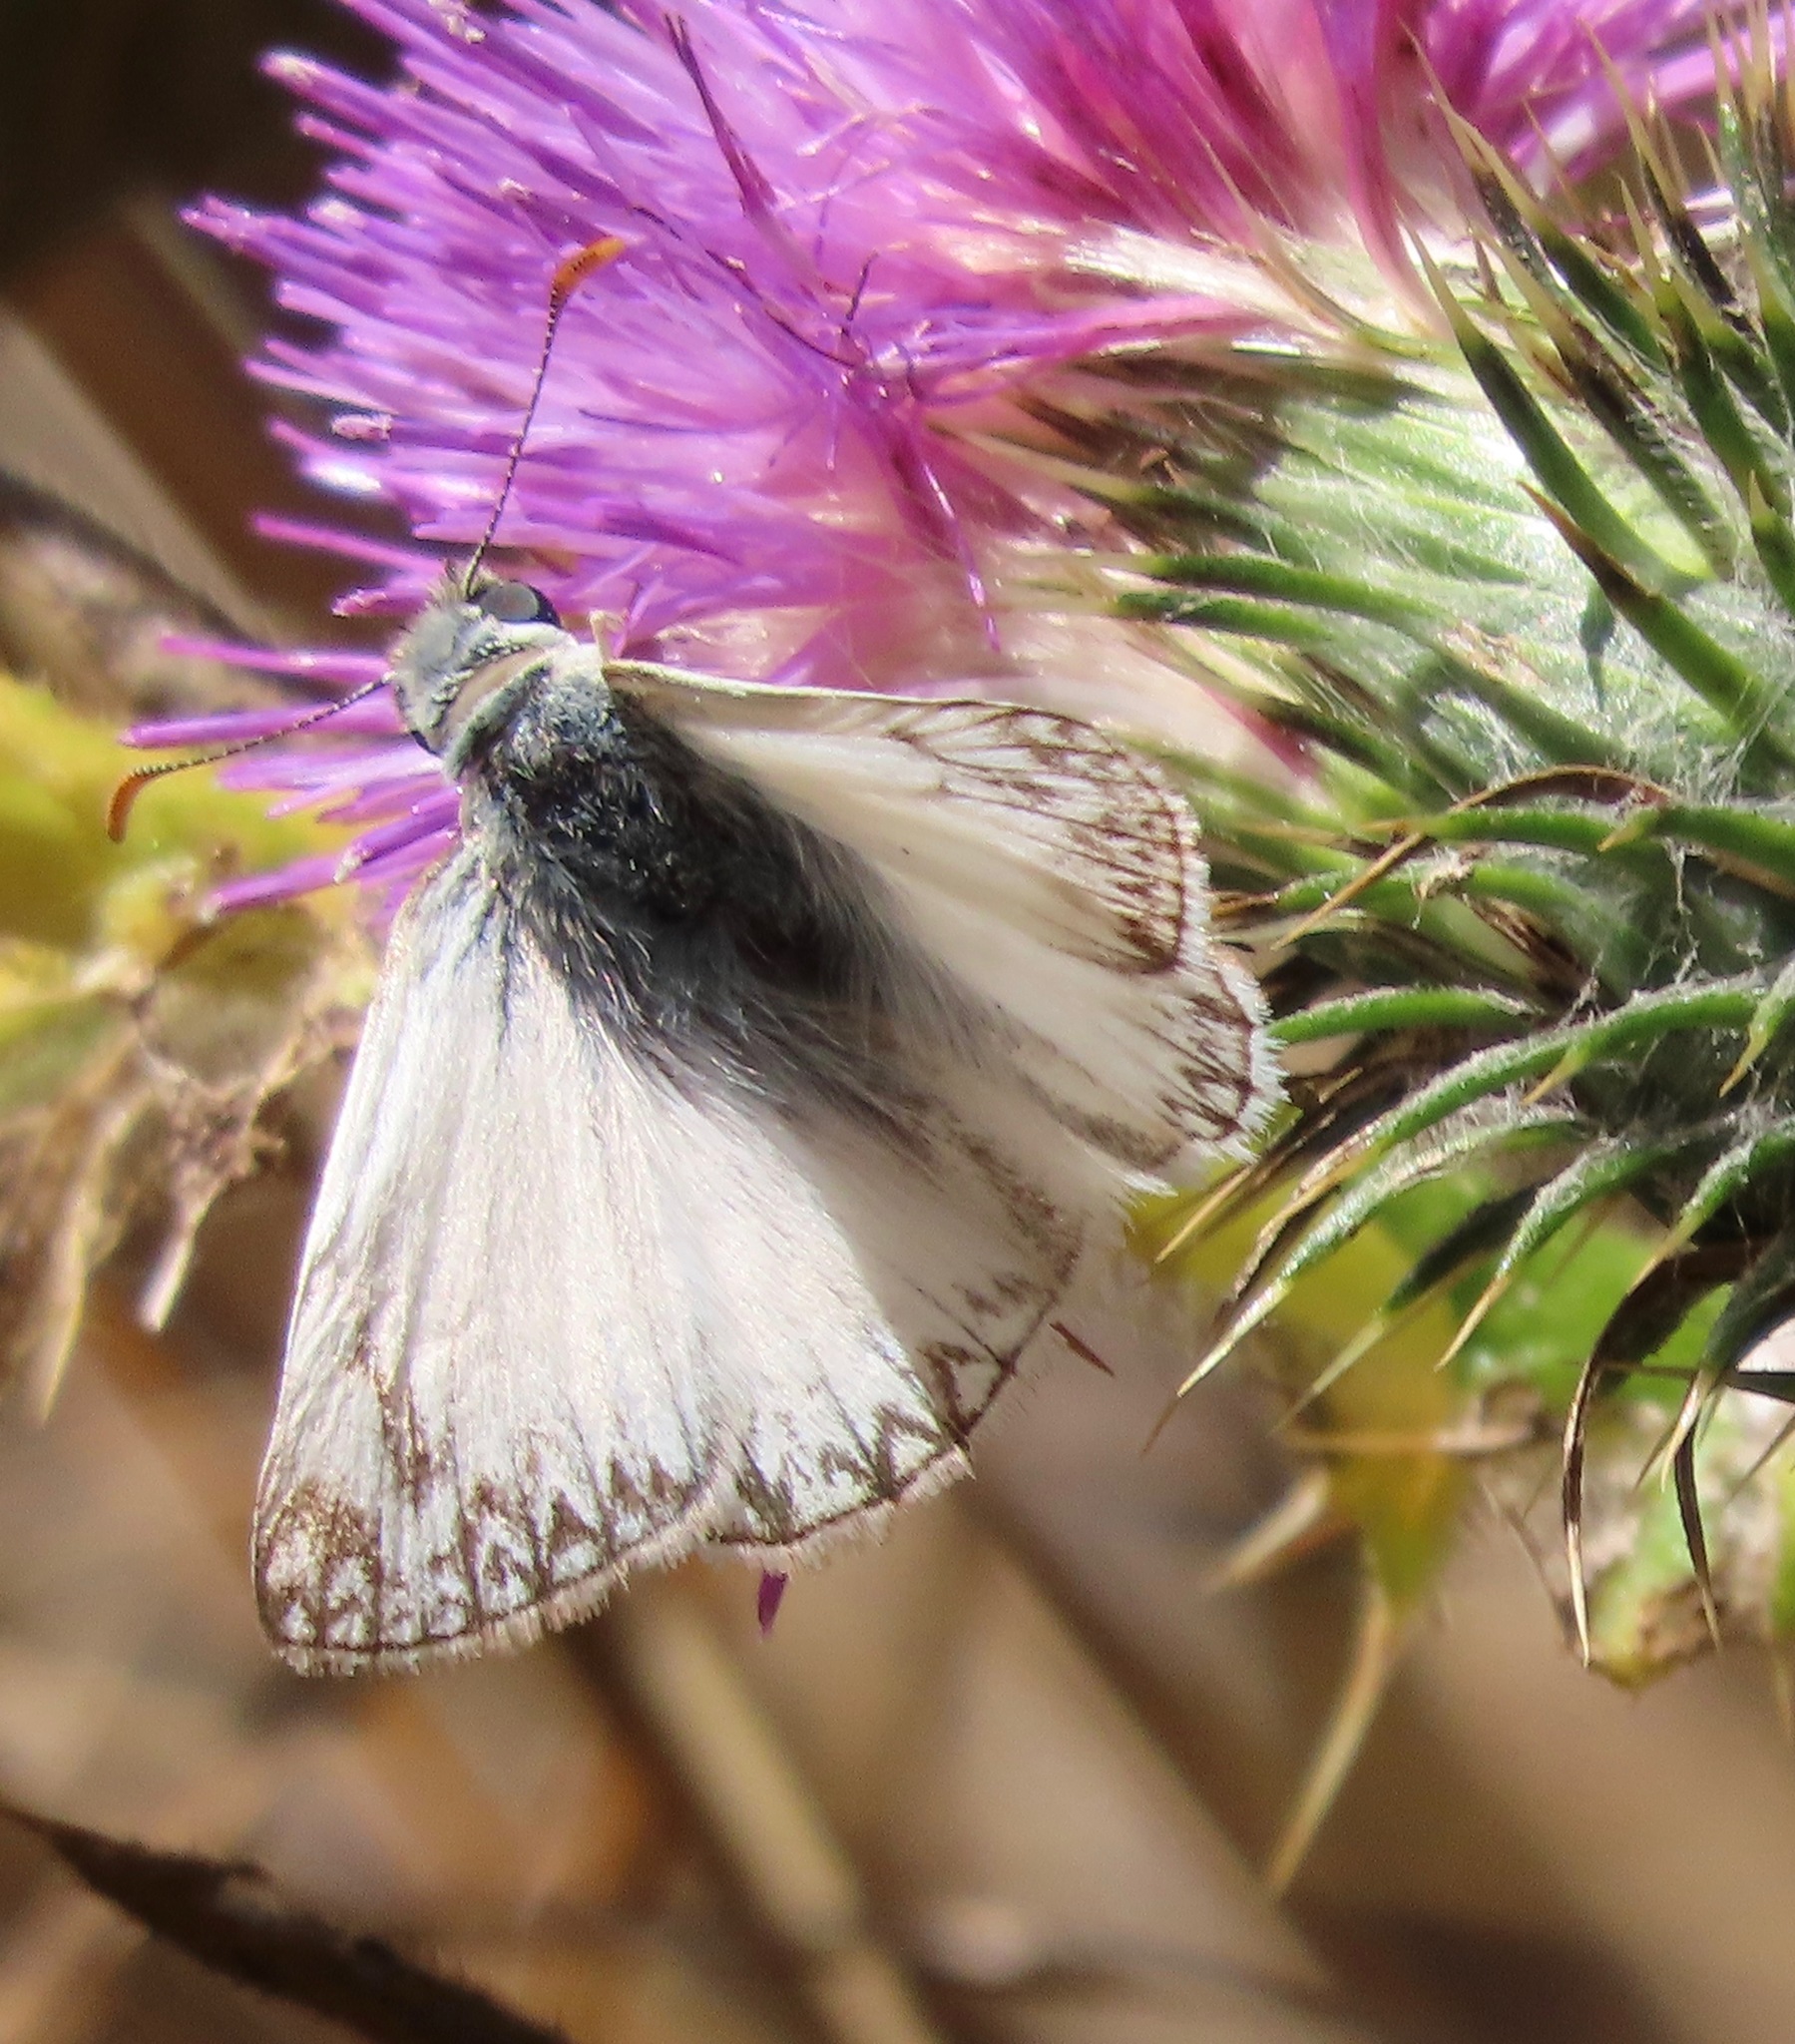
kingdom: Animalia
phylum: Arthropoda
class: Insecta
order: Lepidoptera
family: Hesperiidae
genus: Heliopetes
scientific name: Heliopetes ericetorum
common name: Northern white-skipper
